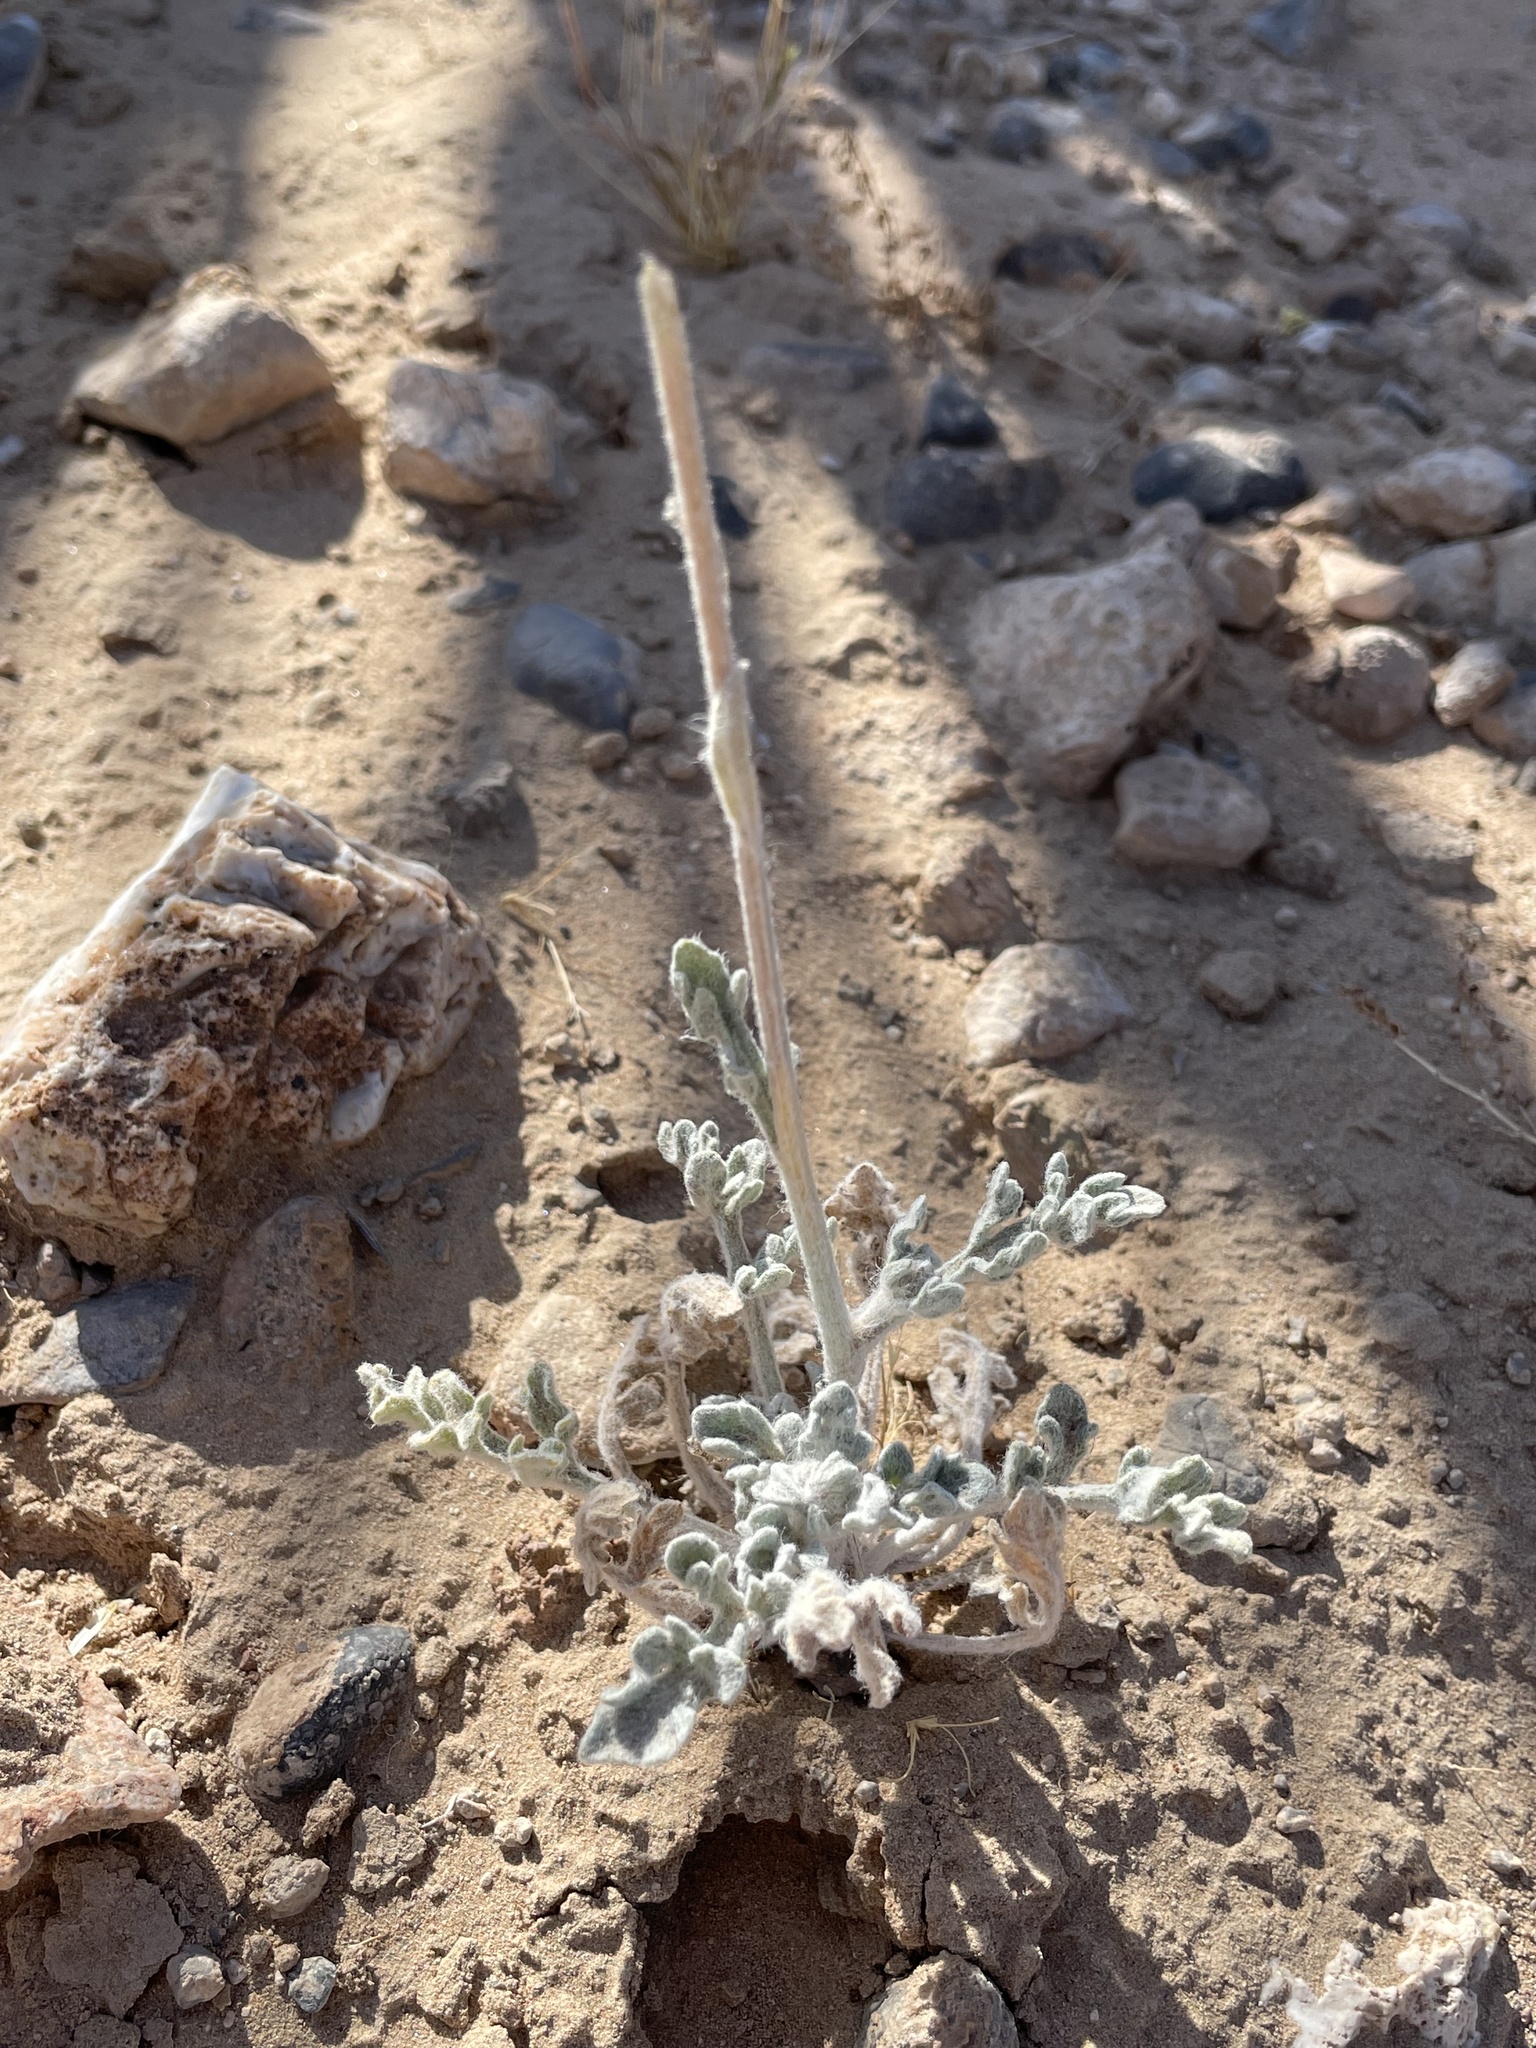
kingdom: Plantae
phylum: Tracheophyta
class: Magnoliopsida
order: Asterales
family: Asteraceae
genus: Baileya
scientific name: Baileya multiradiata
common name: Desert-marigold
